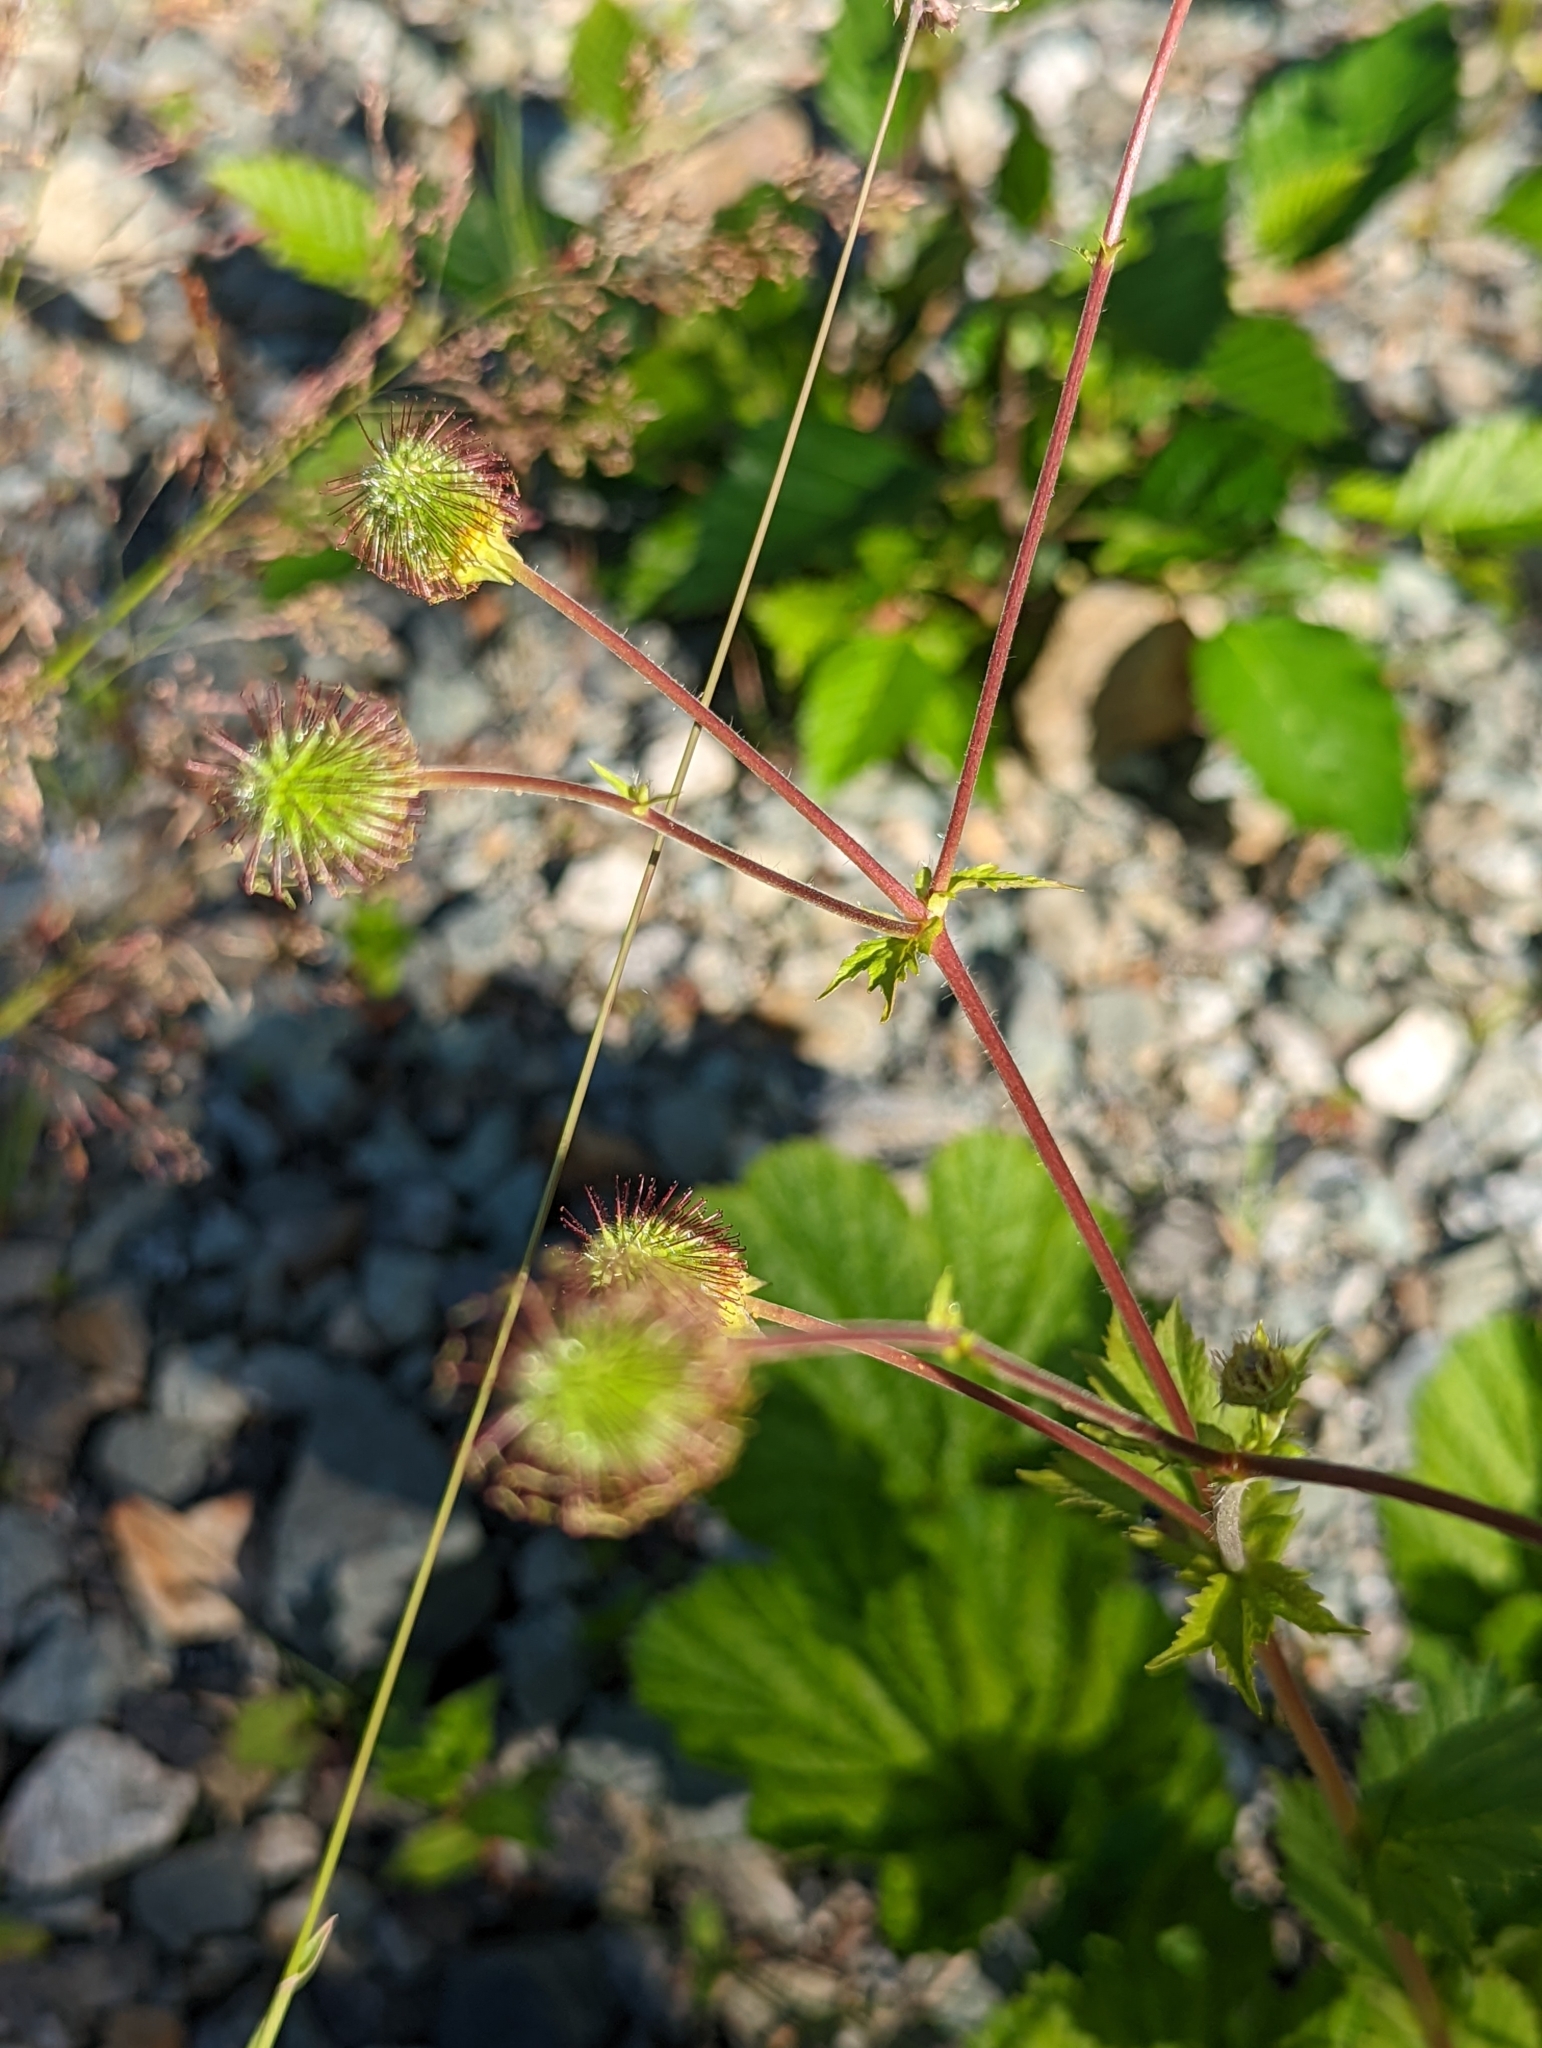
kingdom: Plantae
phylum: Tracheophyta
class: Magnoliopsida
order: Rosales
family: Rosaceae
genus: Geum
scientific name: Geum macrophyllum
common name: Large-leaved avens
